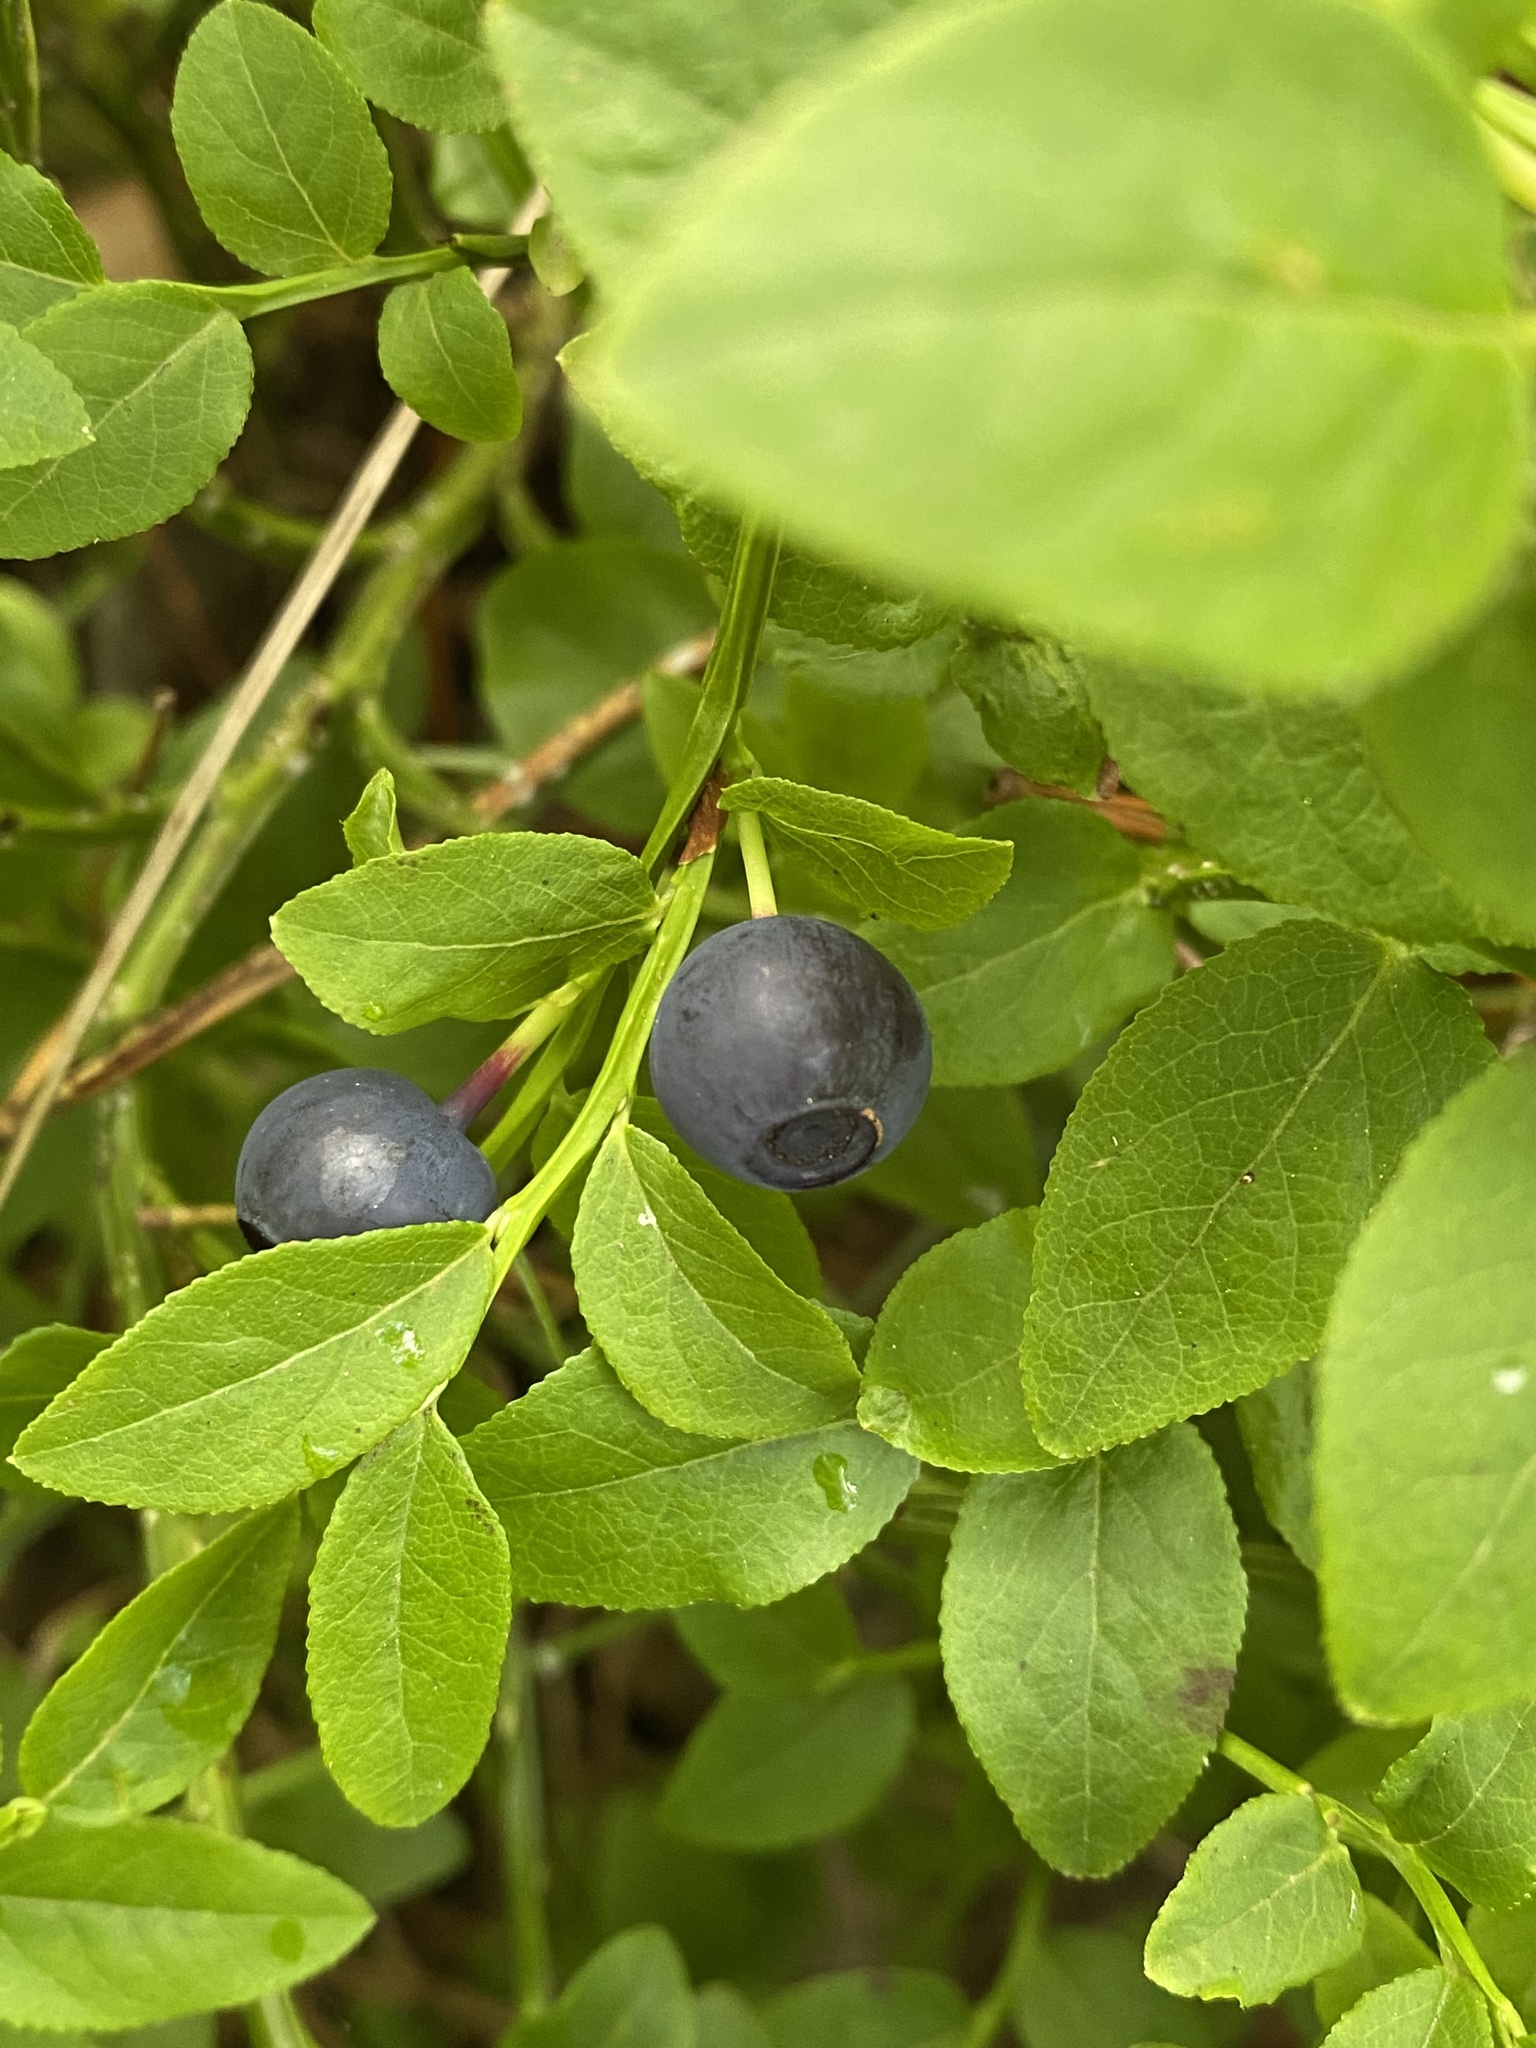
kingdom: Plantae
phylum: Tracheophyta
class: Magnoliopsida
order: Ericales
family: Ericaceae
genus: Vaccinium
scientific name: Vaccinium myrtillus
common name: Bilberry
